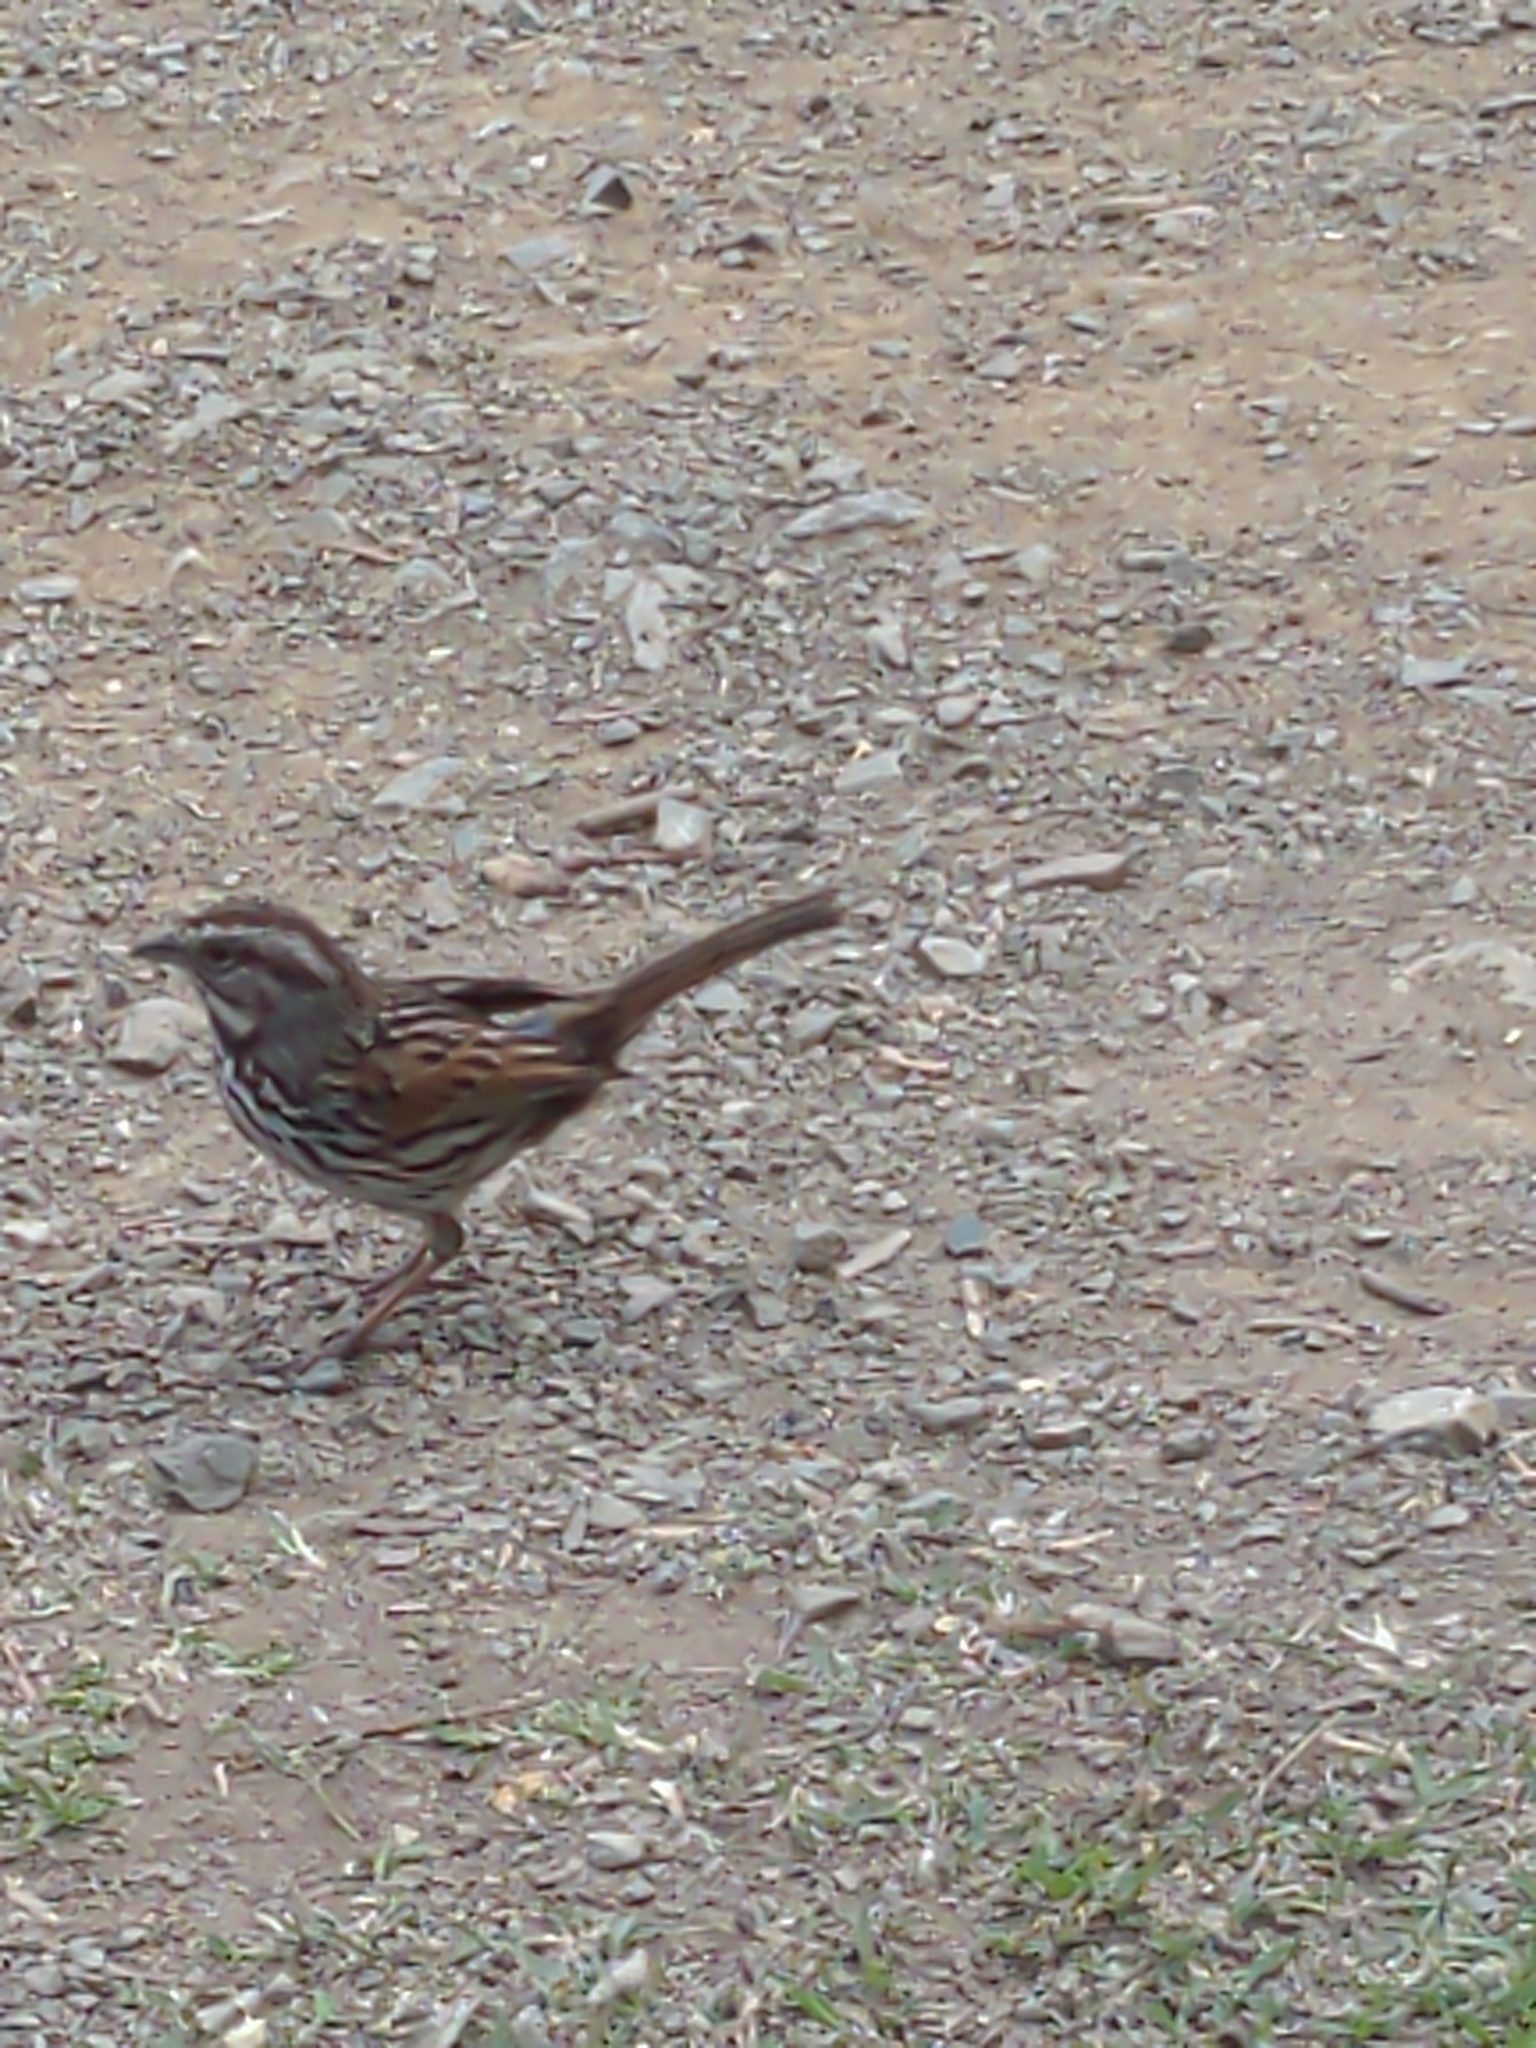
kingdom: Animalia
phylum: Chordata
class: Aves
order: Passeriformes
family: Passerellidae
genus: Melospiza
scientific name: Melospiza melodia
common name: Song sparrow
